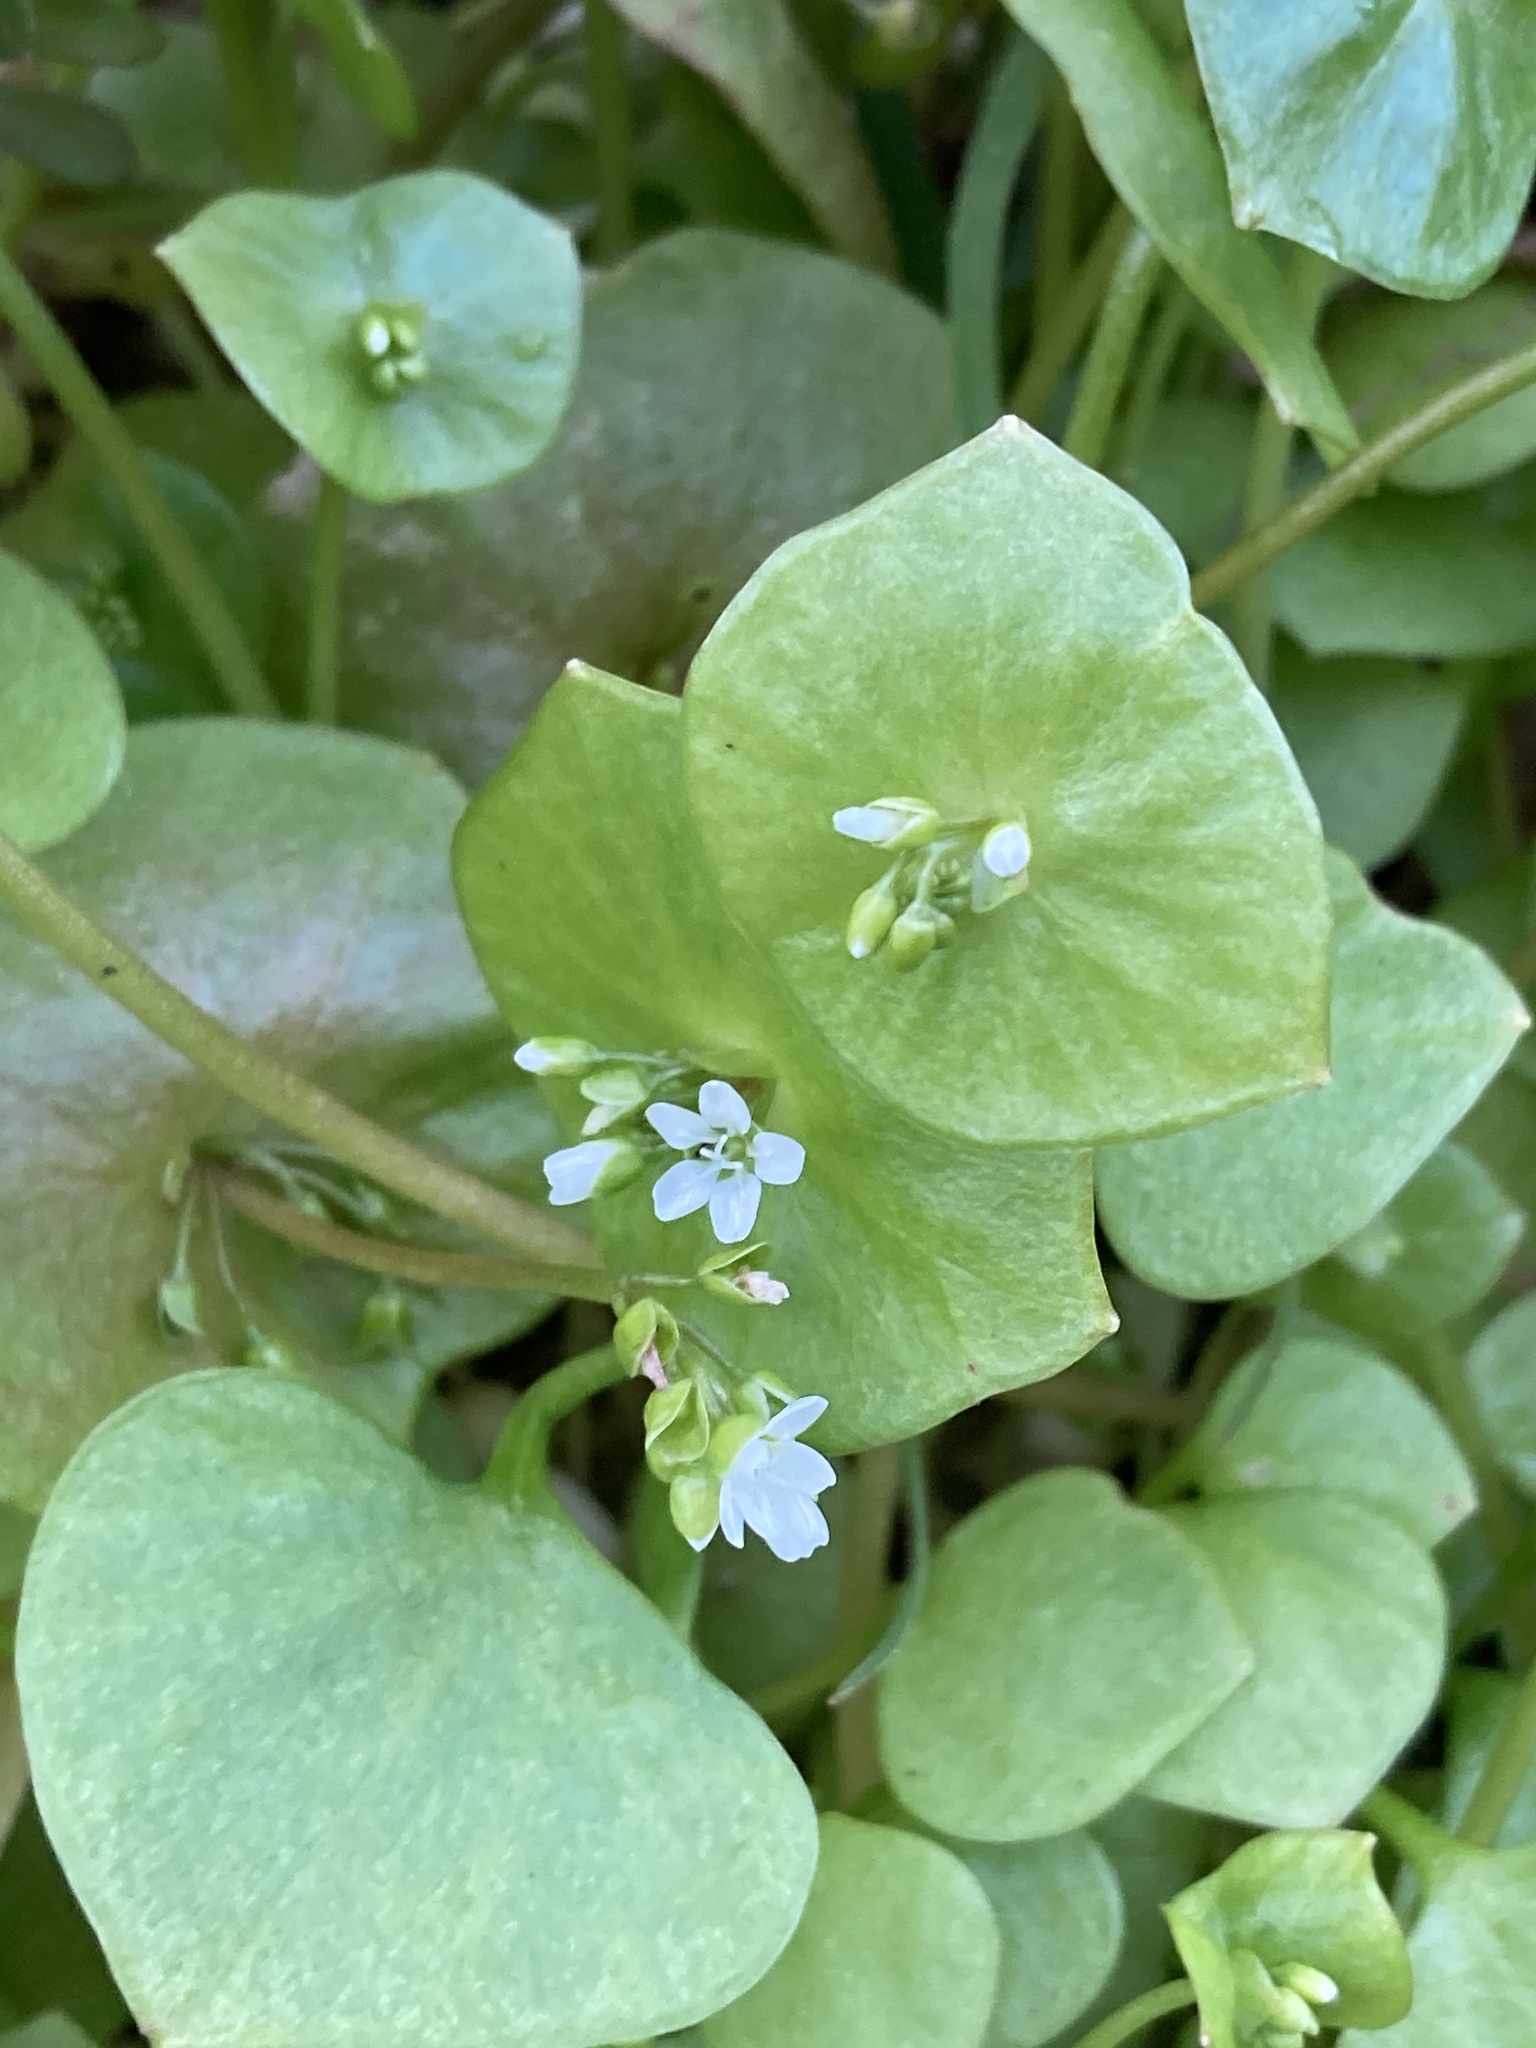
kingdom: Plantae
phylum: Tracheophyta
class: Magnoliopsida
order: Caryophyllales
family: Montiaceae
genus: Claytonia
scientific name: Claytonia perfoliata
